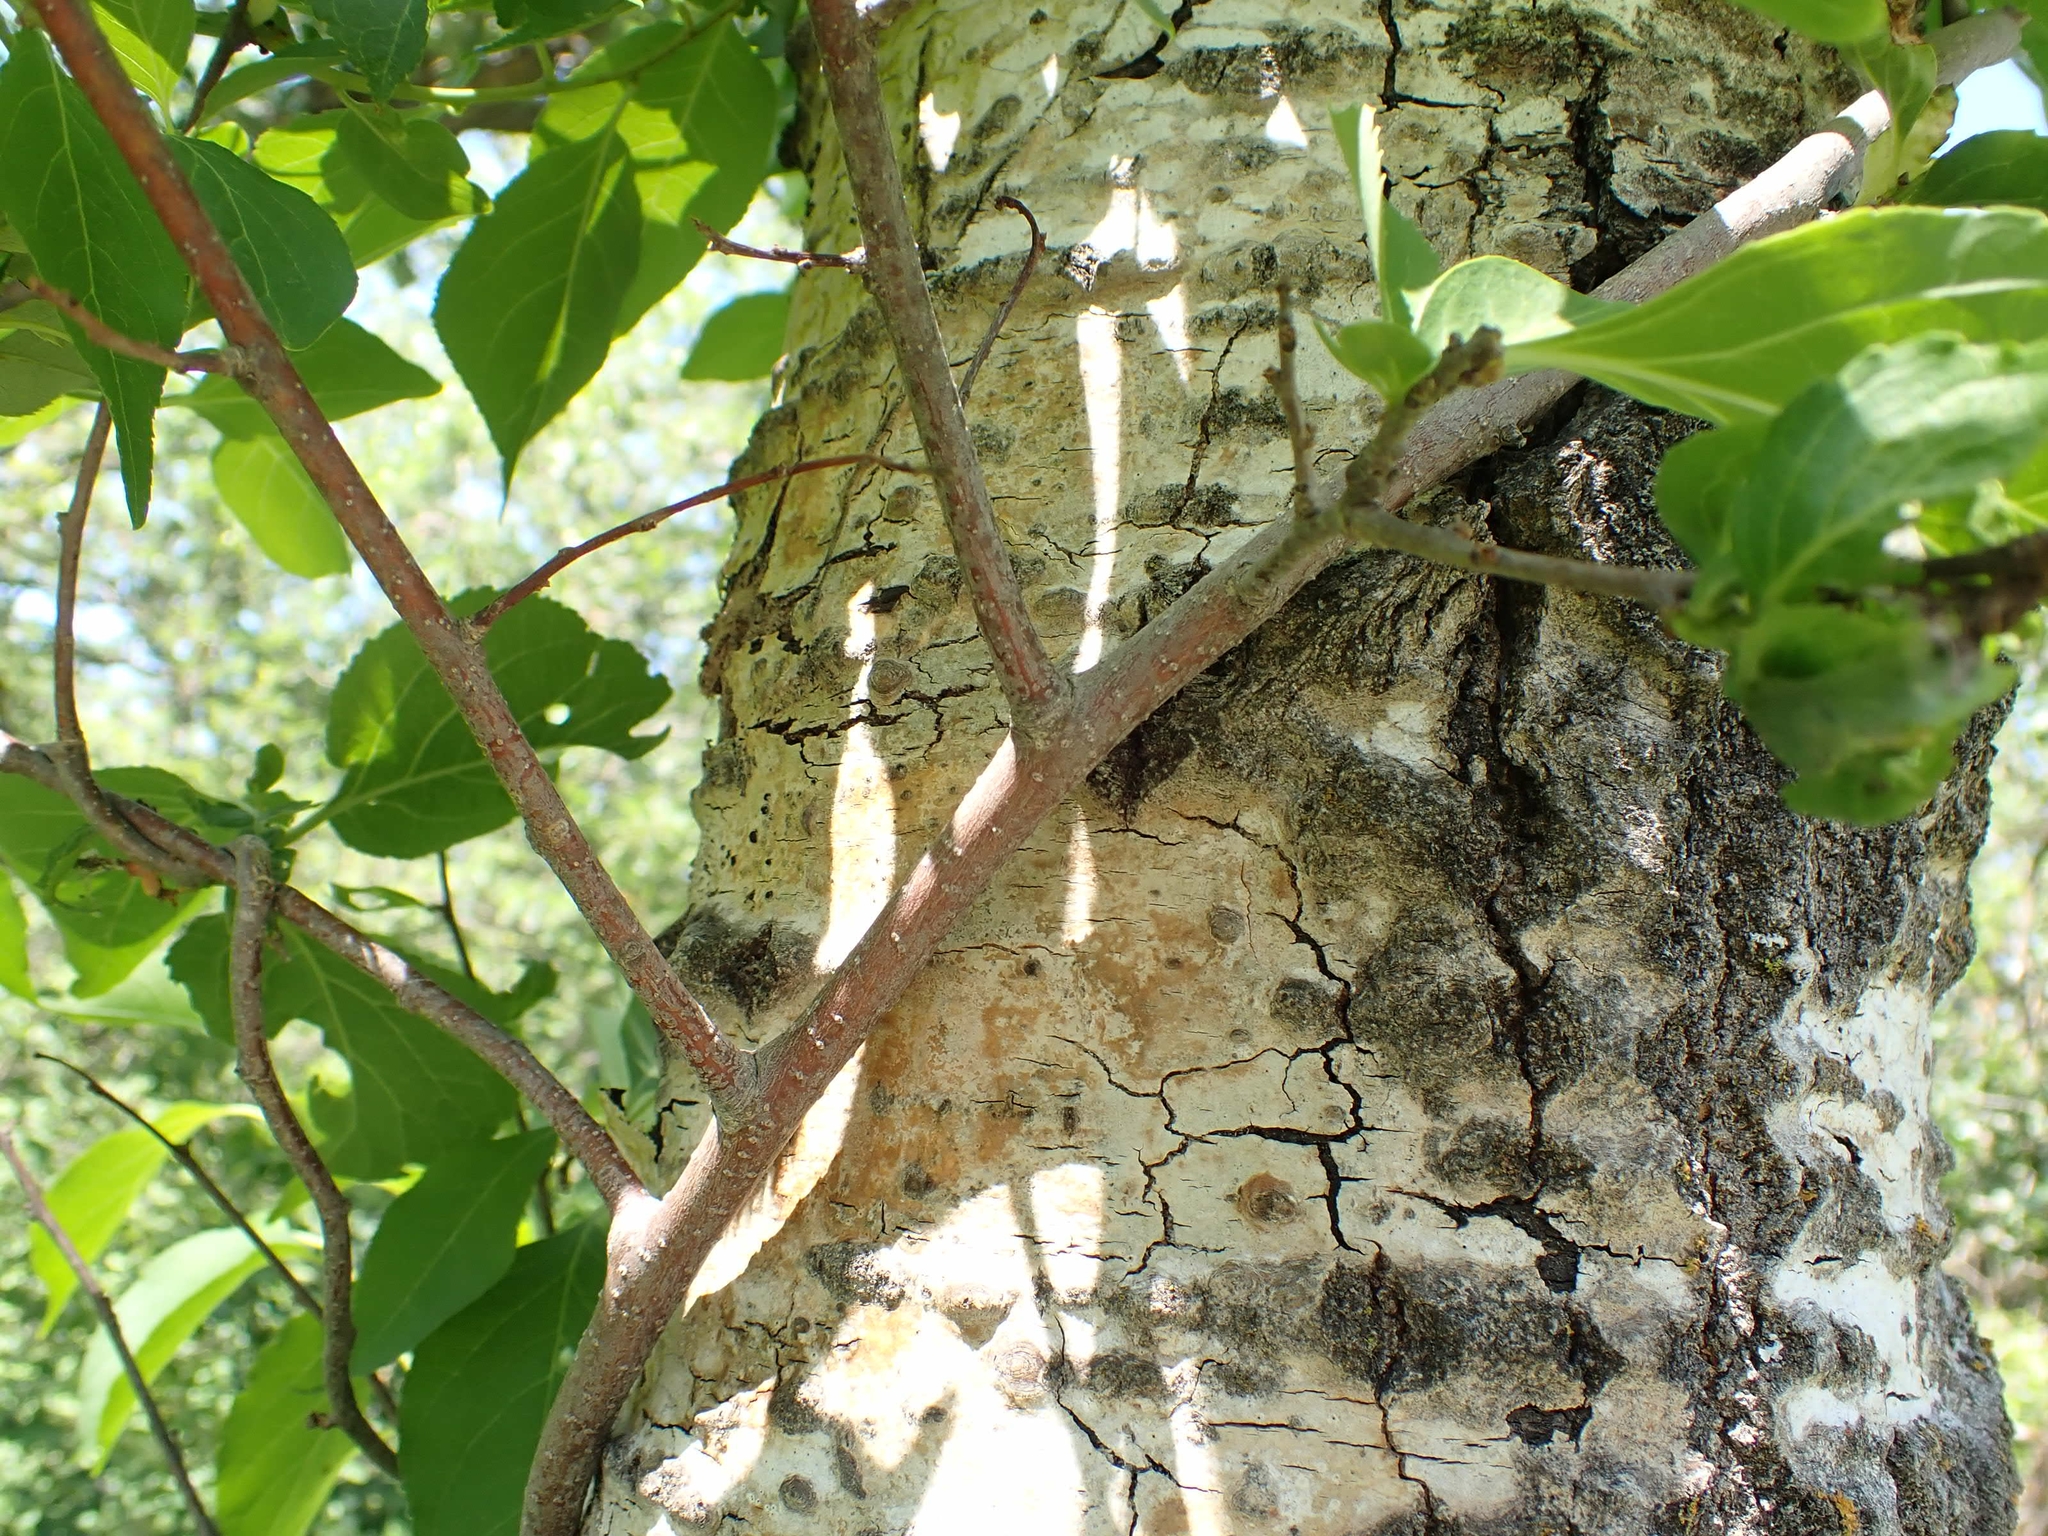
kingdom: Plantae
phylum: Tracheophyta
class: Magnoliopsida
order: Celastrales
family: Celastraceae
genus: Celastrus
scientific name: Celastrus scandens
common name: American bittersweet
